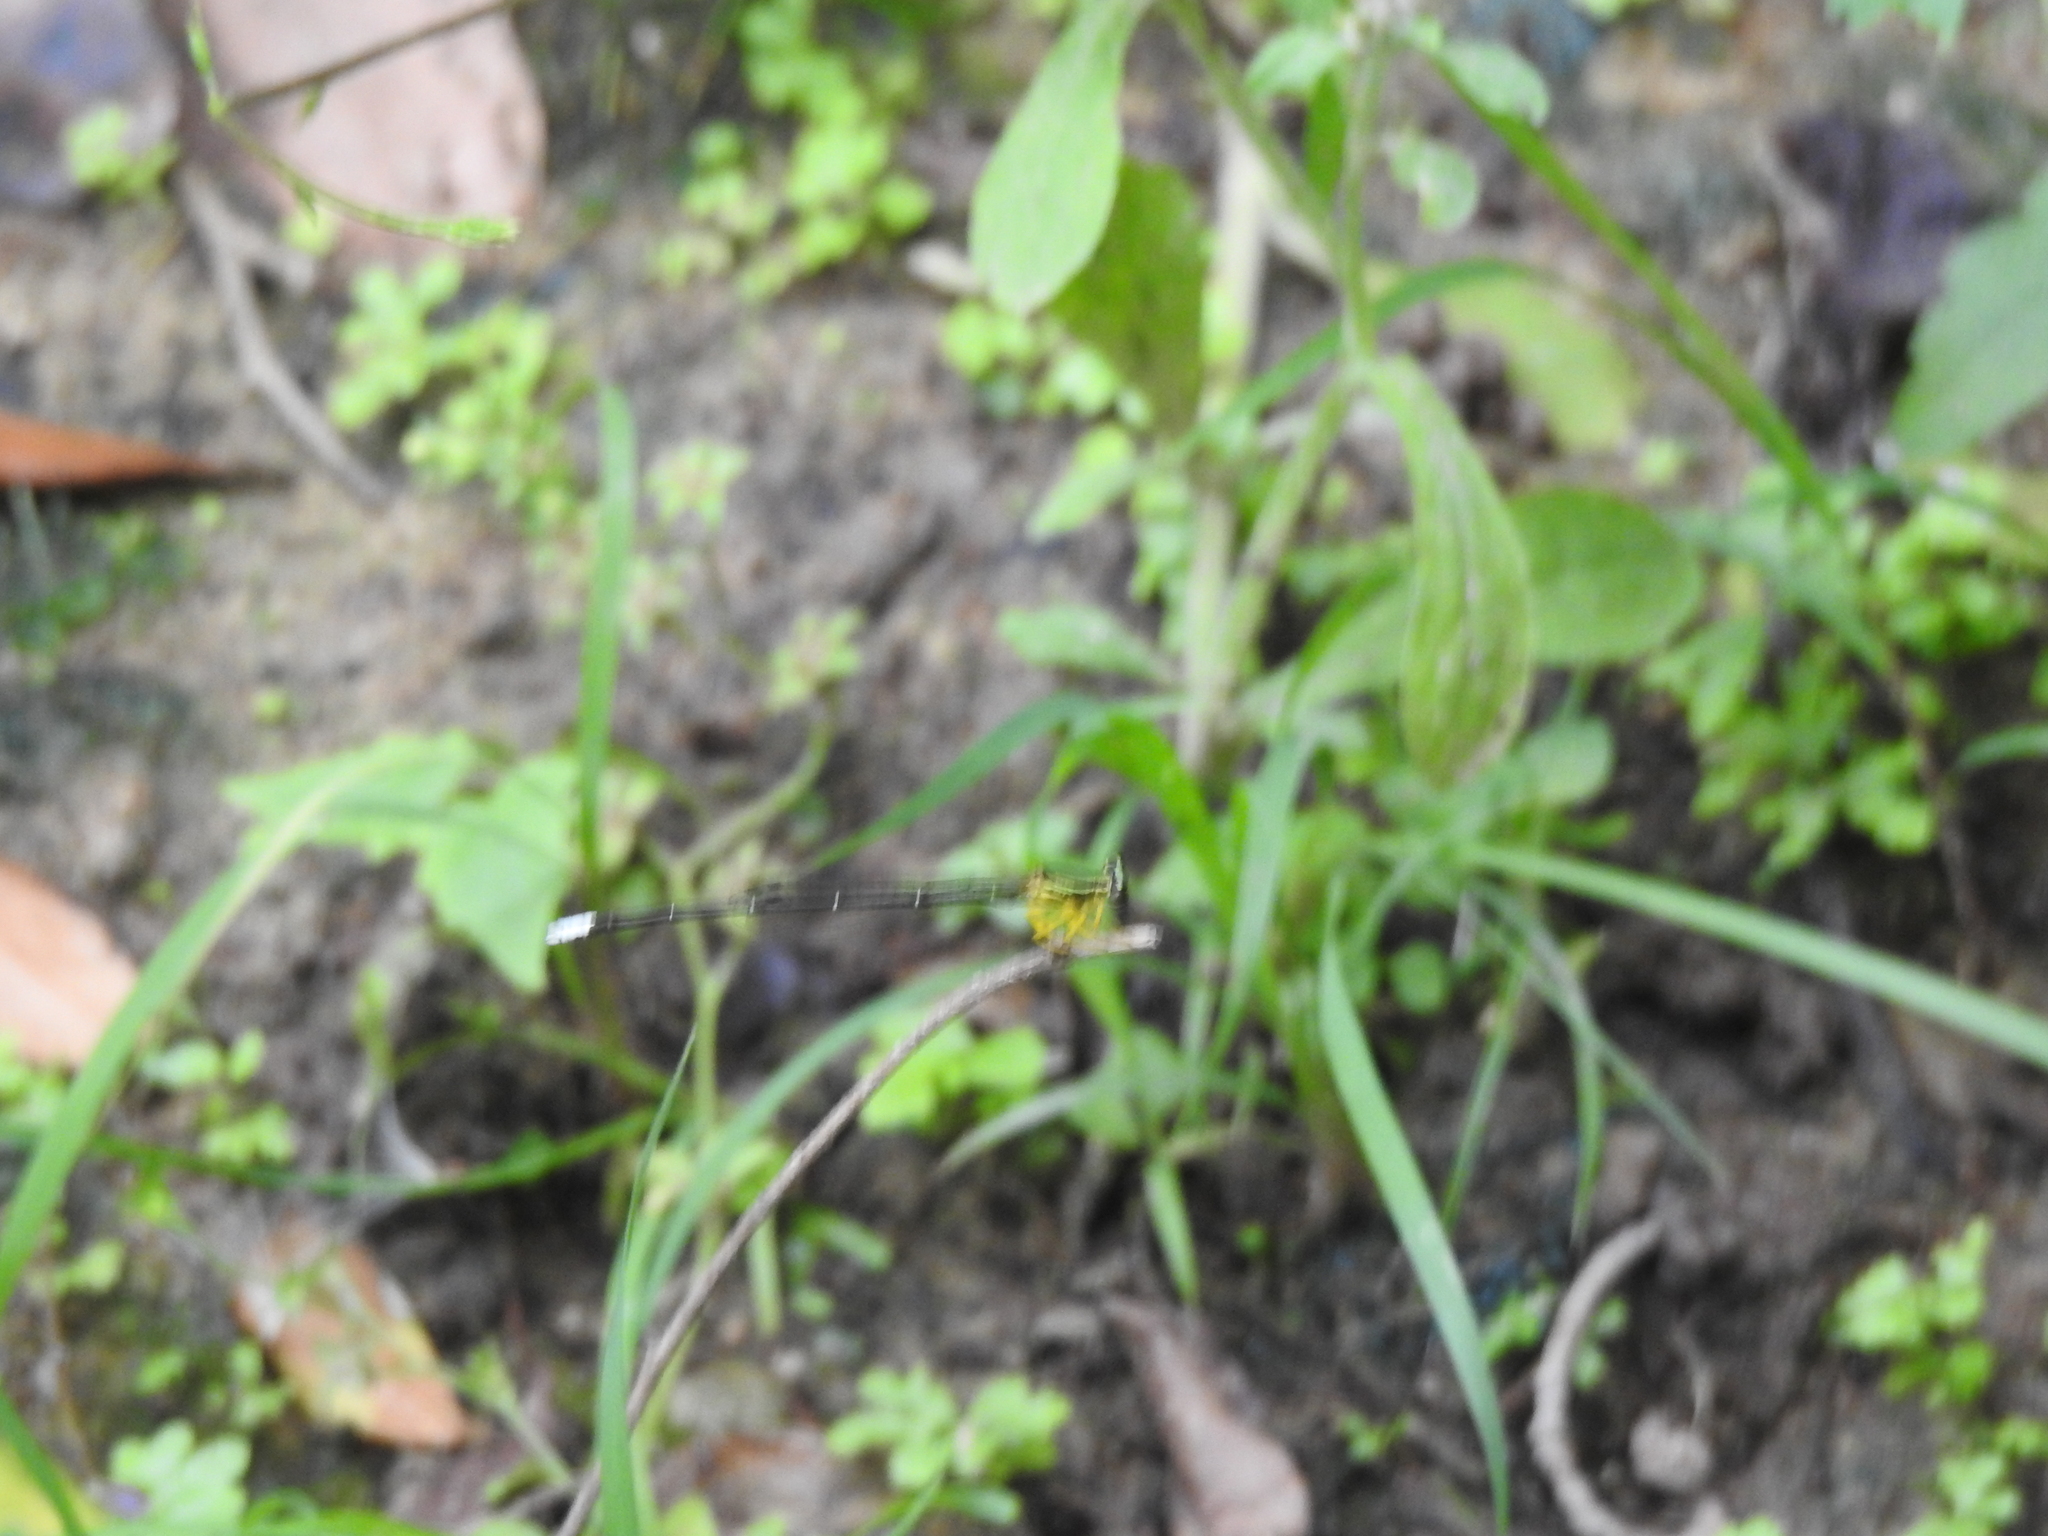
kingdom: Animalia
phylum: Arthropoda
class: Insecta
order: Odonata
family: Platycnemididae
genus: Copera
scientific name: Copera marginipes
